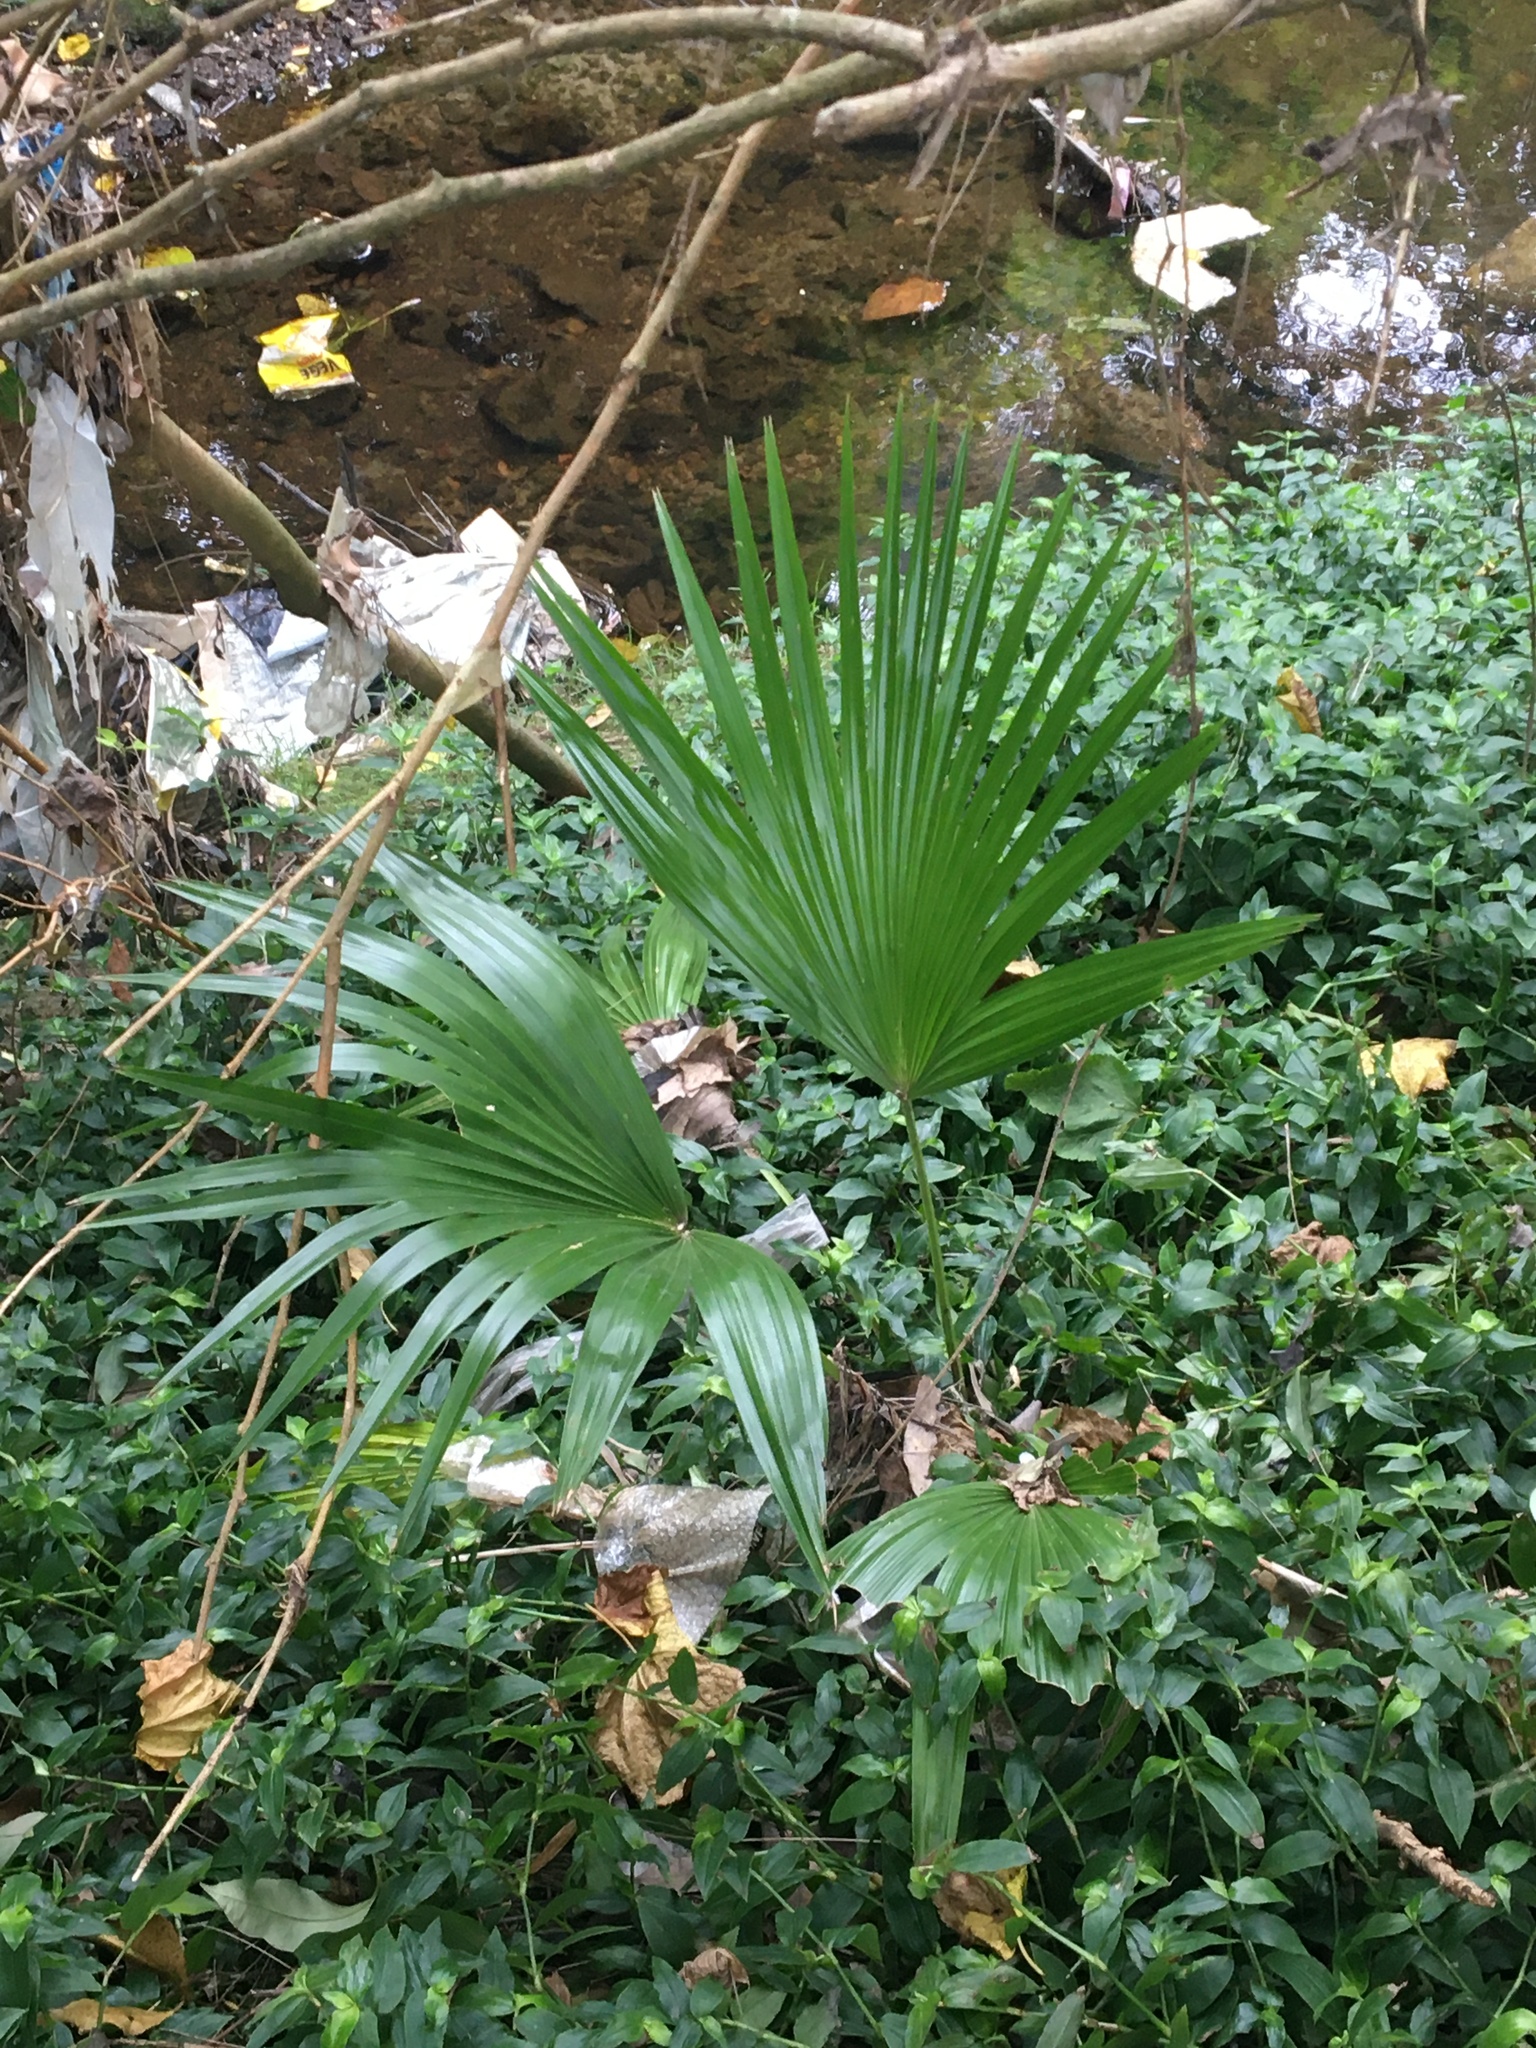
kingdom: Plantae
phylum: Tracheophyta
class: Liliopsida
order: Arecales
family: Arecaceae
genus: Livistona
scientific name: Livistona australis
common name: Cabbage fan palm
